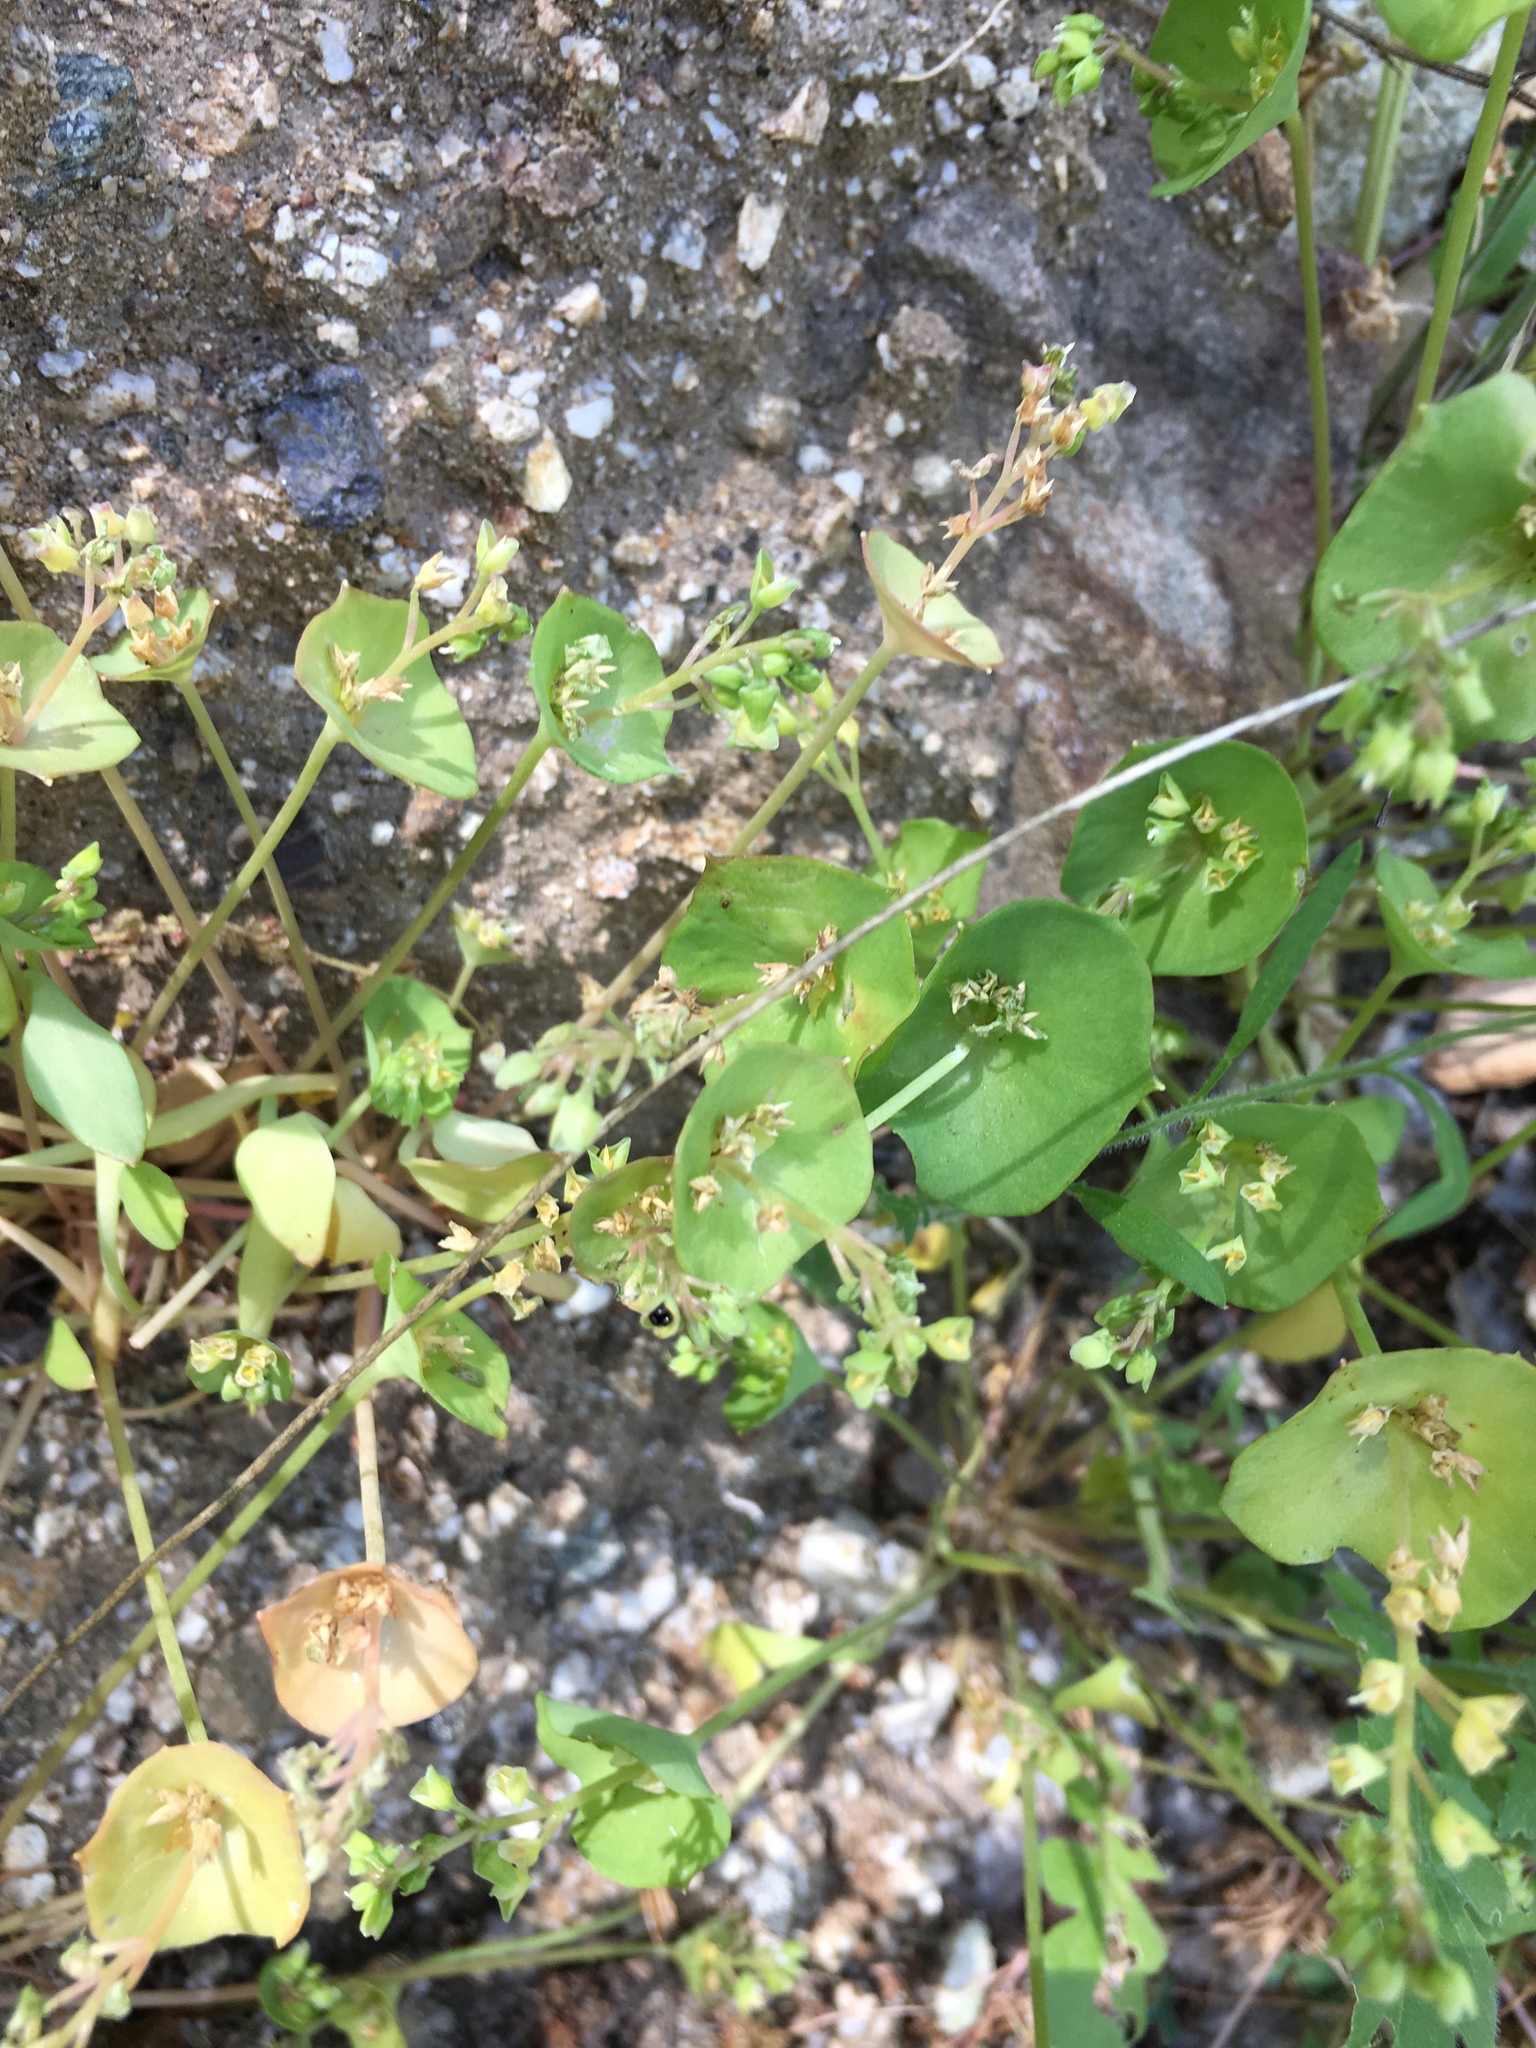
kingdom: Plantae
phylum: Tracheophyta
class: Magnoliopsida
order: Caryophyllales
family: Montiaceae
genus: Claytonia
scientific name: Claytonia perfoliata
